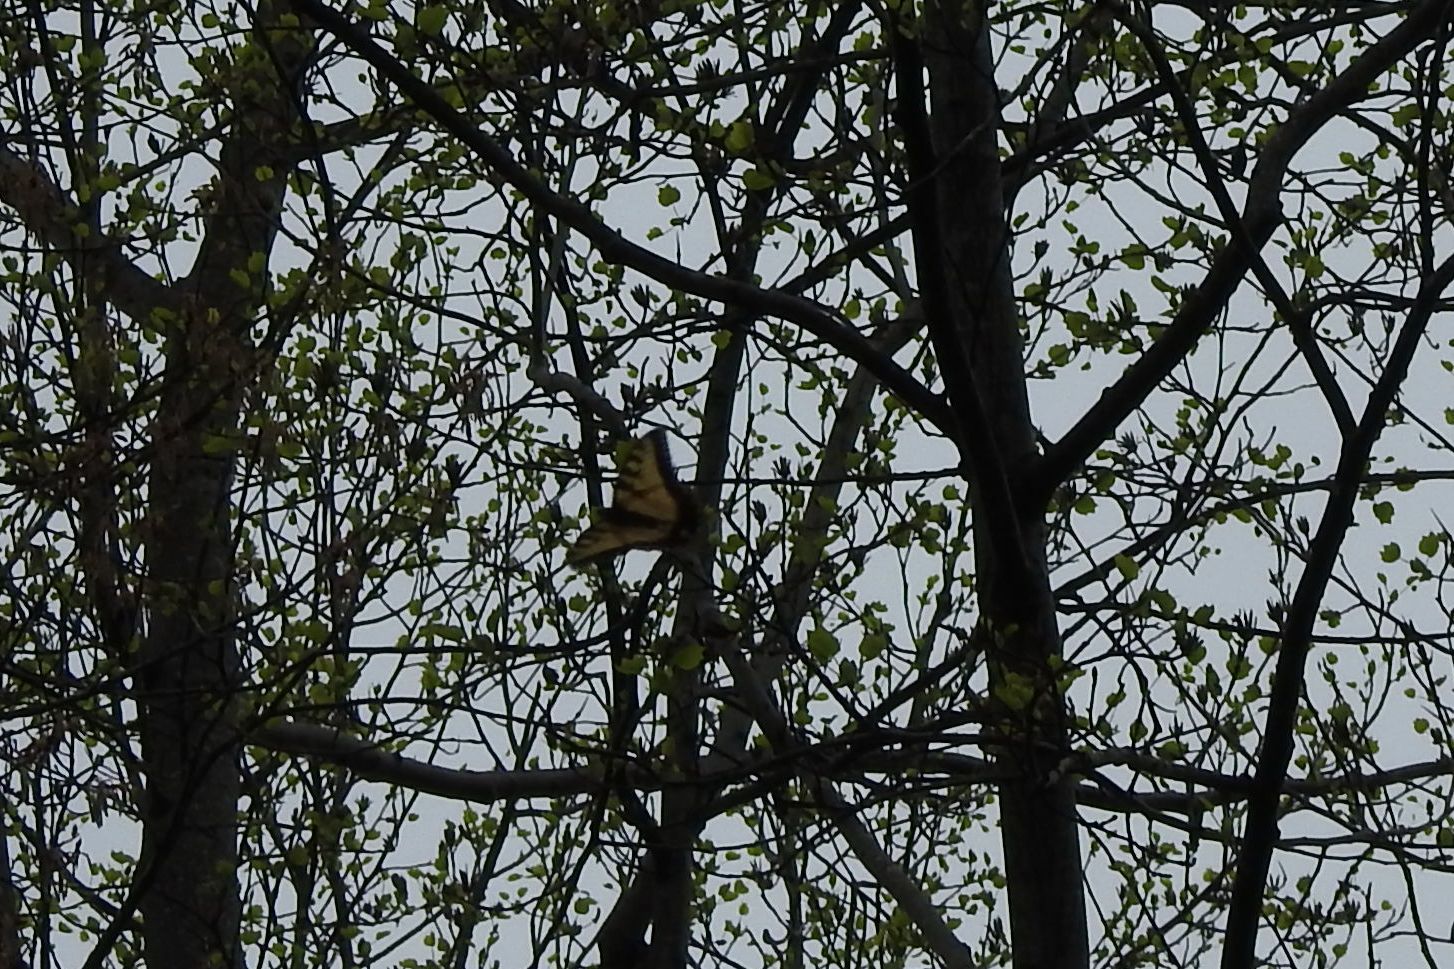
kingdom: Animalia
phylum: Arthropoda
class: Insecta
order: Lepidoptera
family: Papilionidae
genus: Papilio
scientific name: Papilio glaucus
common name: Tiger swallowtail
